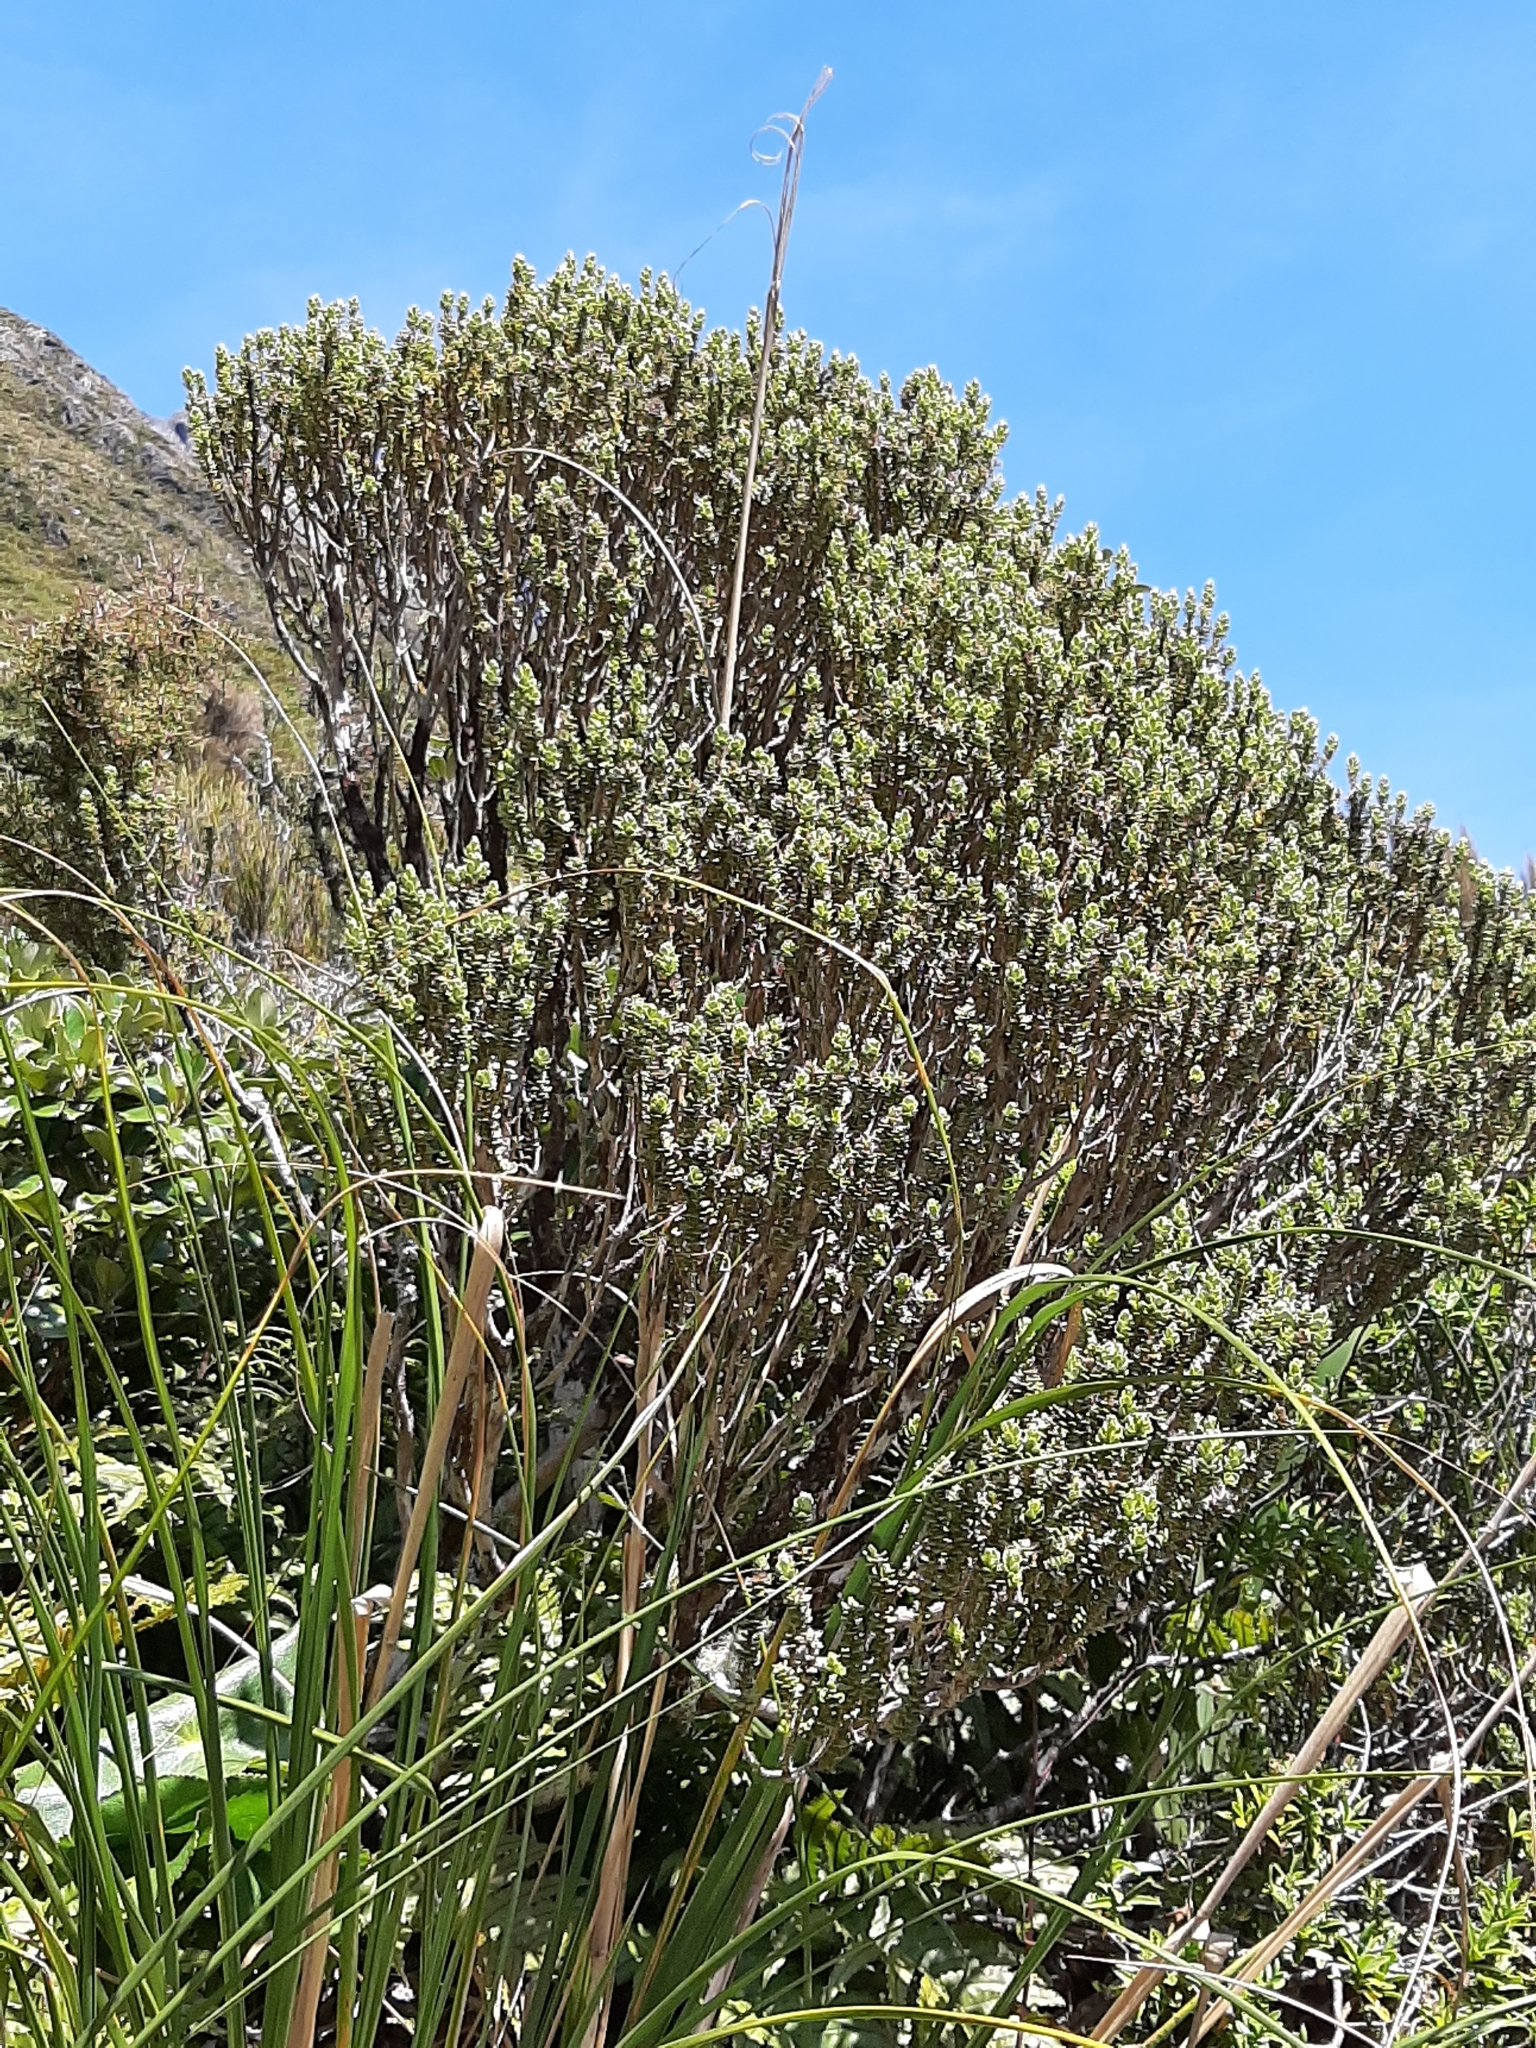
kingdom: Plantae
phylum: Tracheophyta
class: Magnoliopsida
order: Asterales
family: Asteraceae
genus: Olearia
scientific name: Olearia nummularifolia
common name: Sticky daisybush
